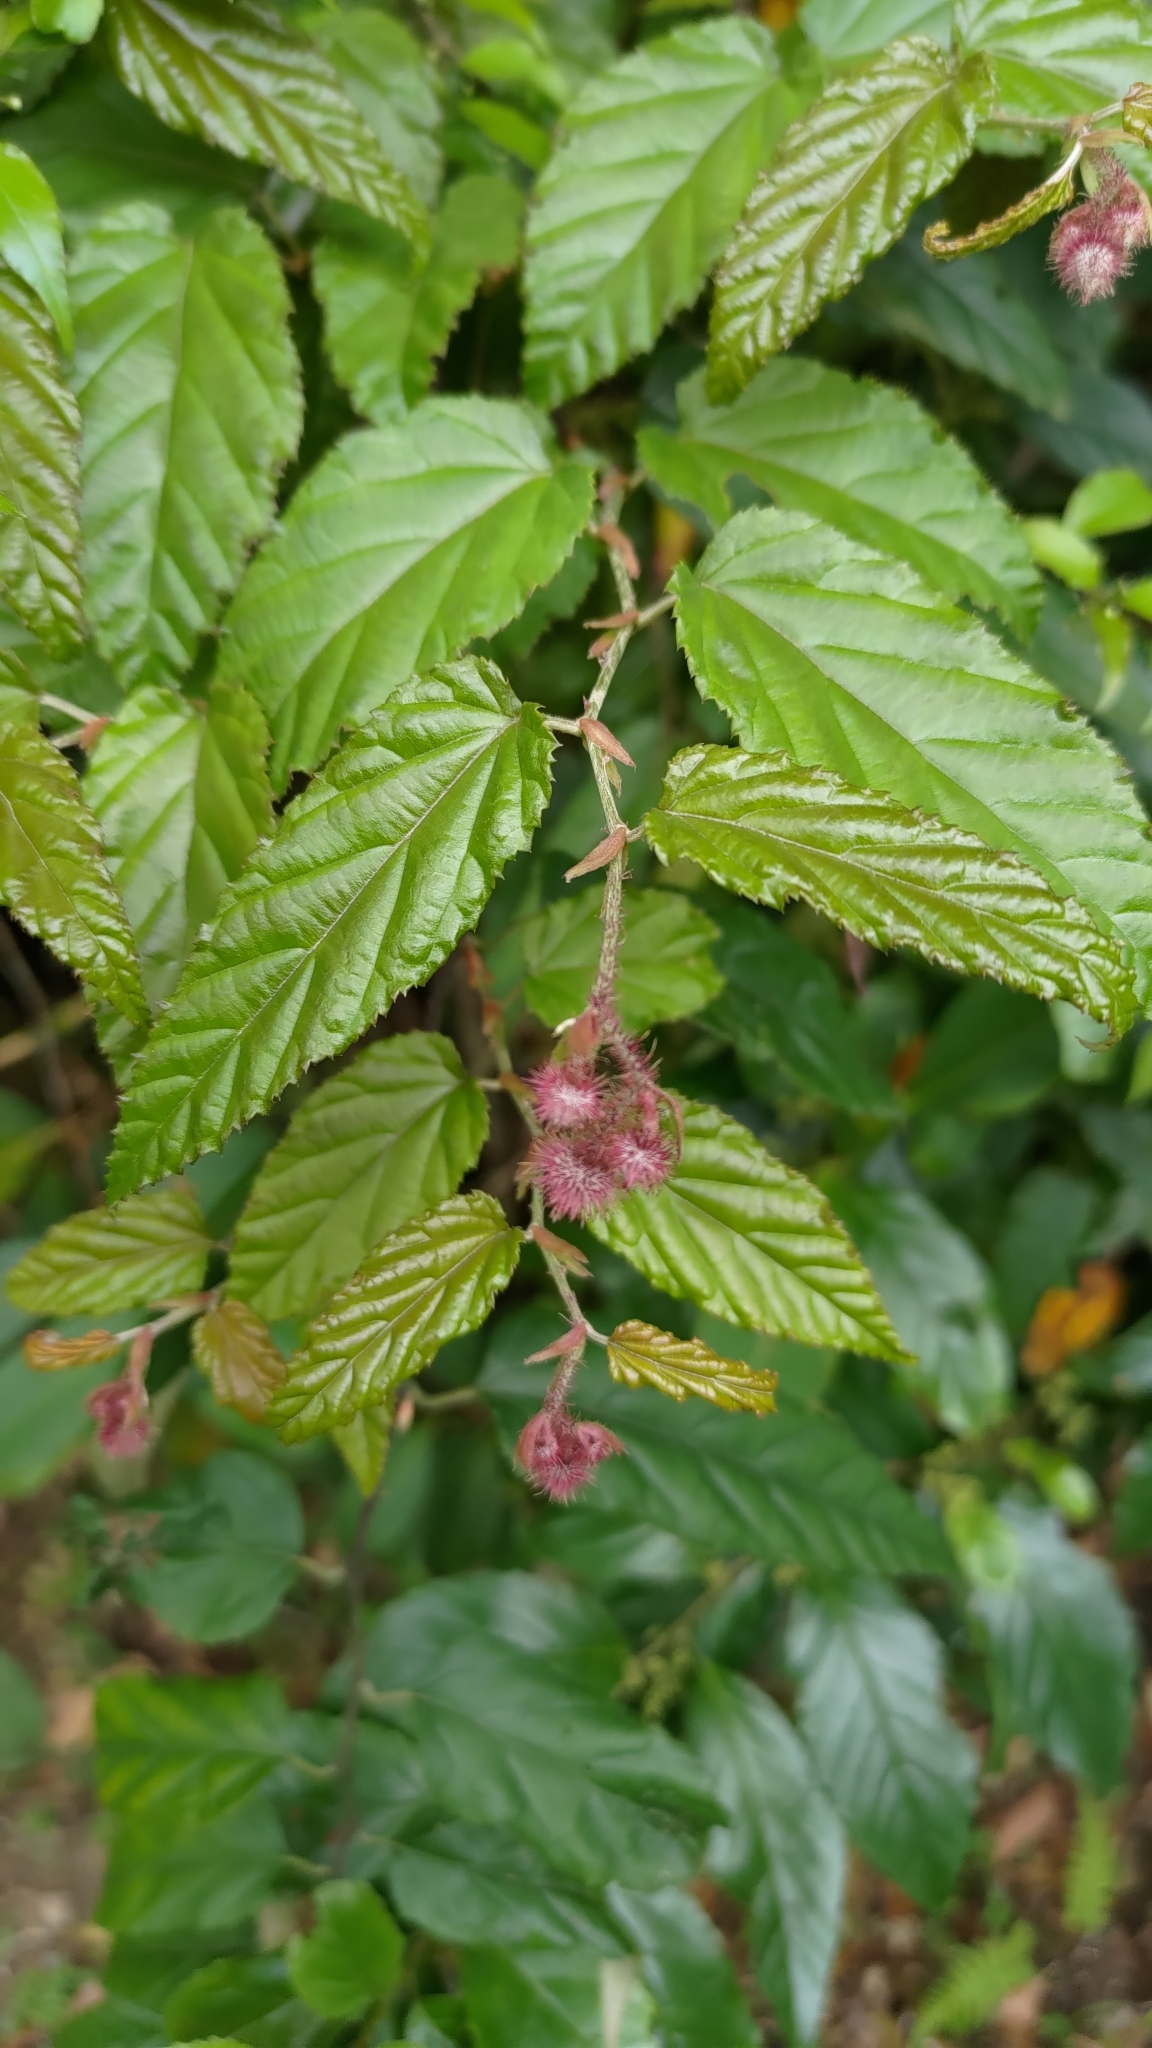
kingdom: Plantae
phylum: Tracheophyta
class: Magnoliopsida
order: Rosales
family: Rosaceae
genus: Rubus
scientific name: Rubus swinhoei
